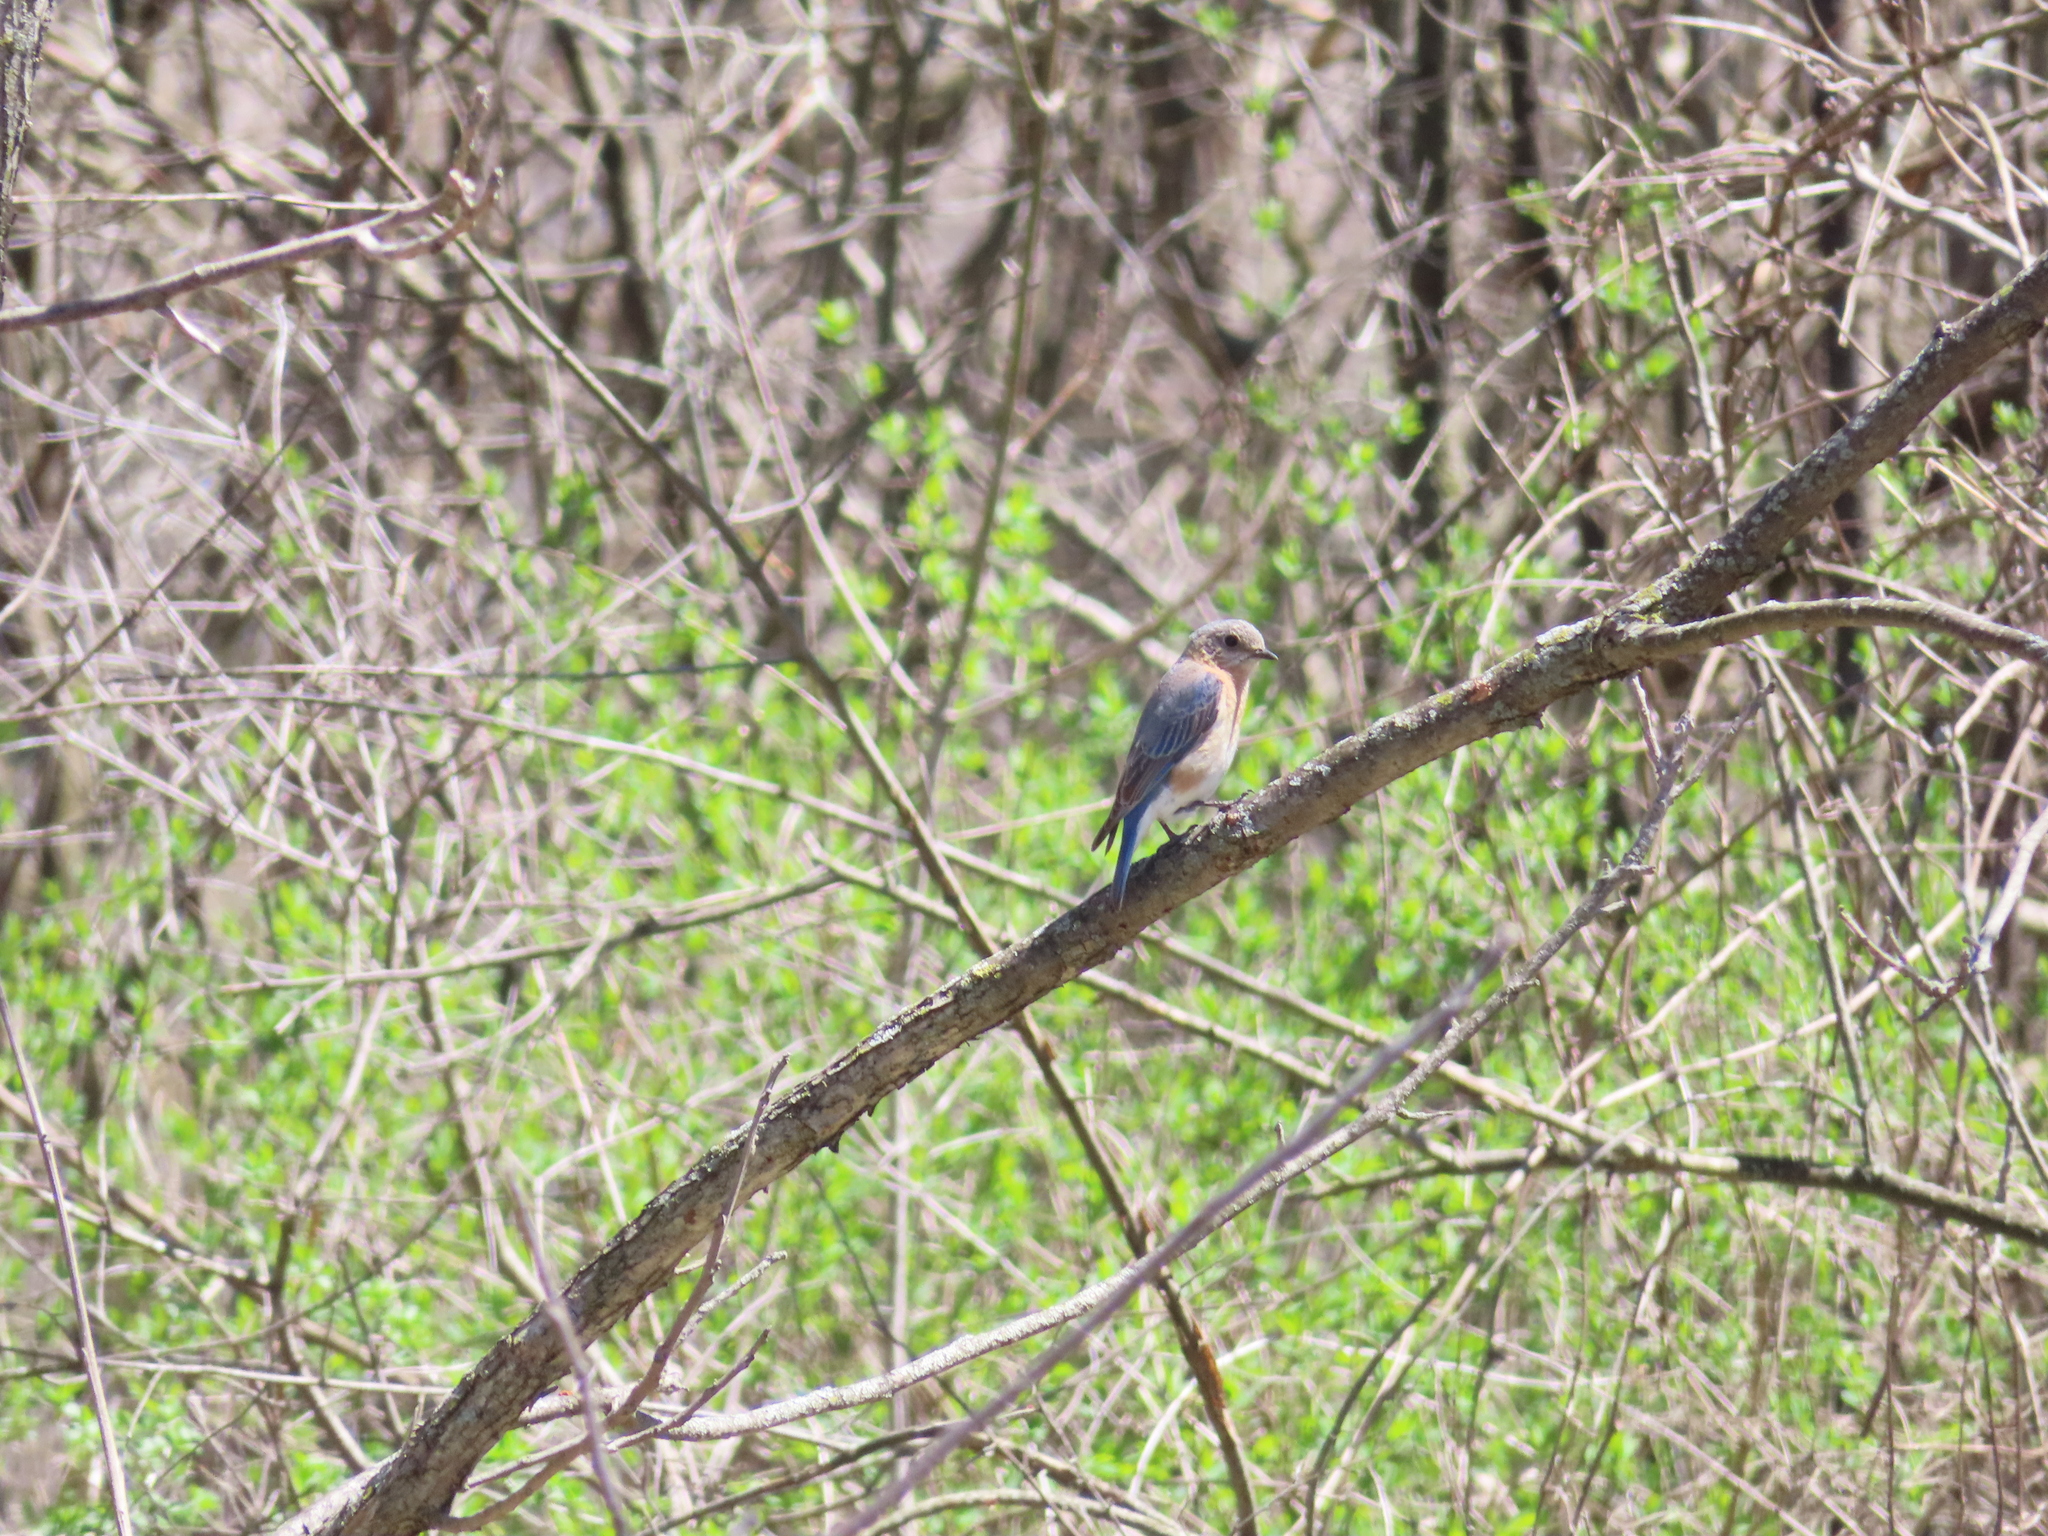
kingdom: Animalia
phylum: Chordata
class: Aves
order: Passeriformes
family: Turdidae
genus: Sialia
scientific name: Sialia sialis
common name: Eastern bluebird
